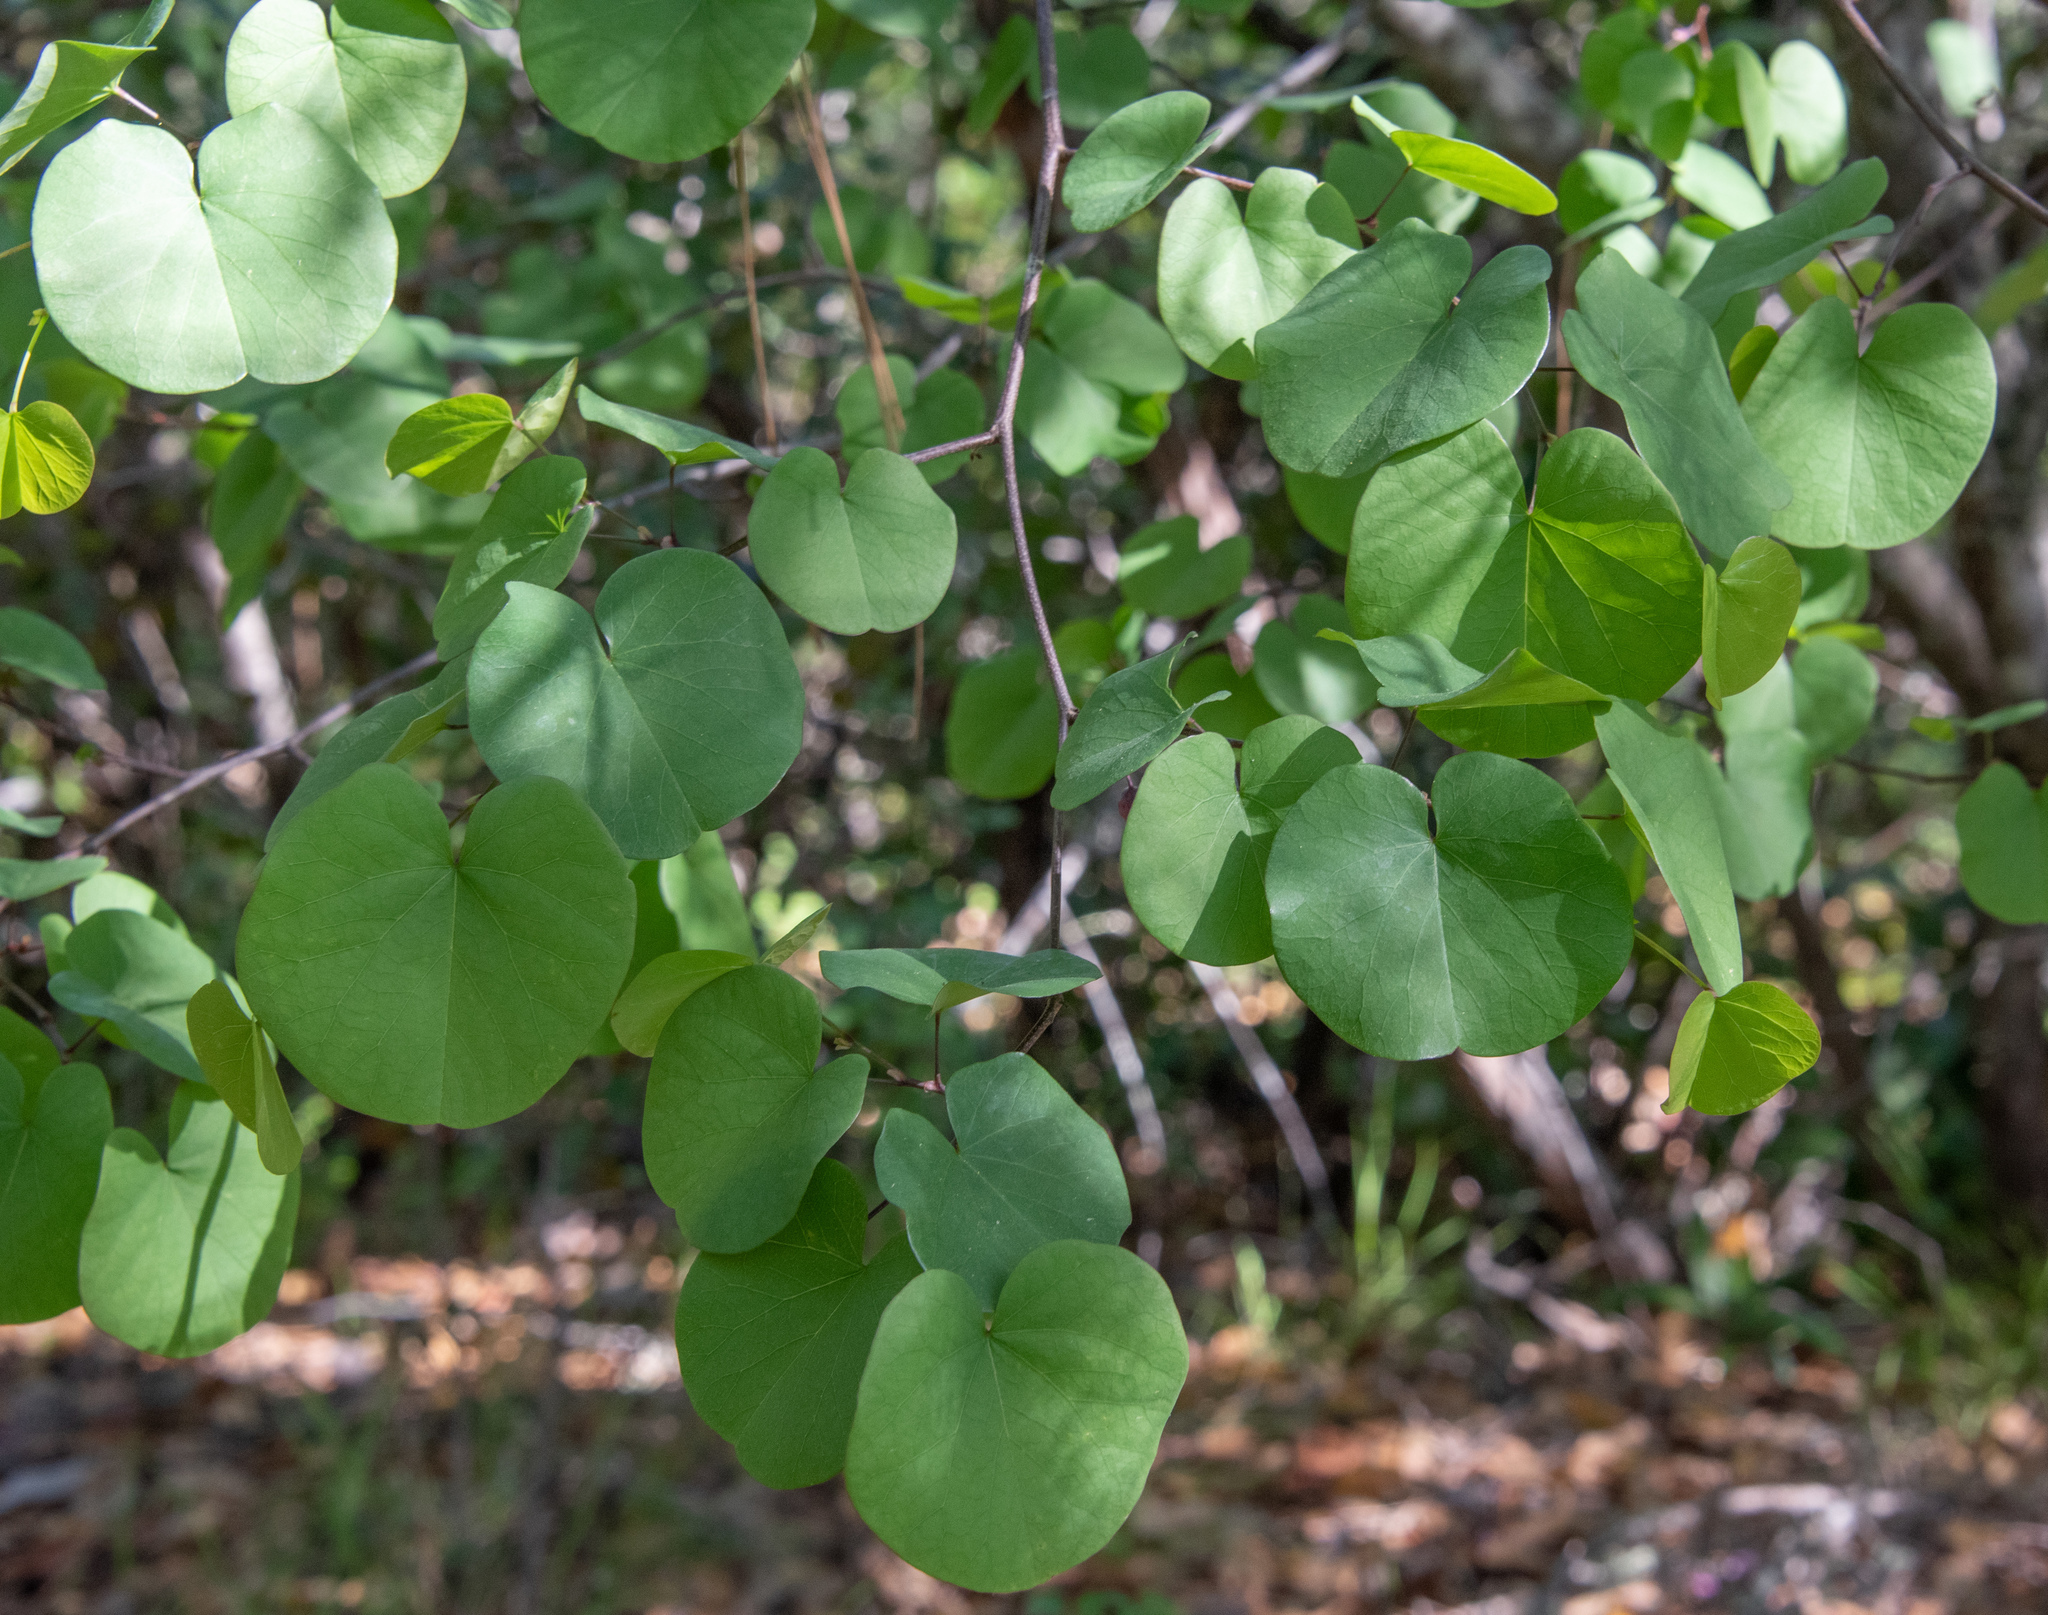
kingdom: Plantae
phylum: Tracheophyta
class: Magnoliopsida
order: Fabales
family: Fabaceae
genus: Cercis
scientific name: Cercis occidentalis
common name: California redbud
